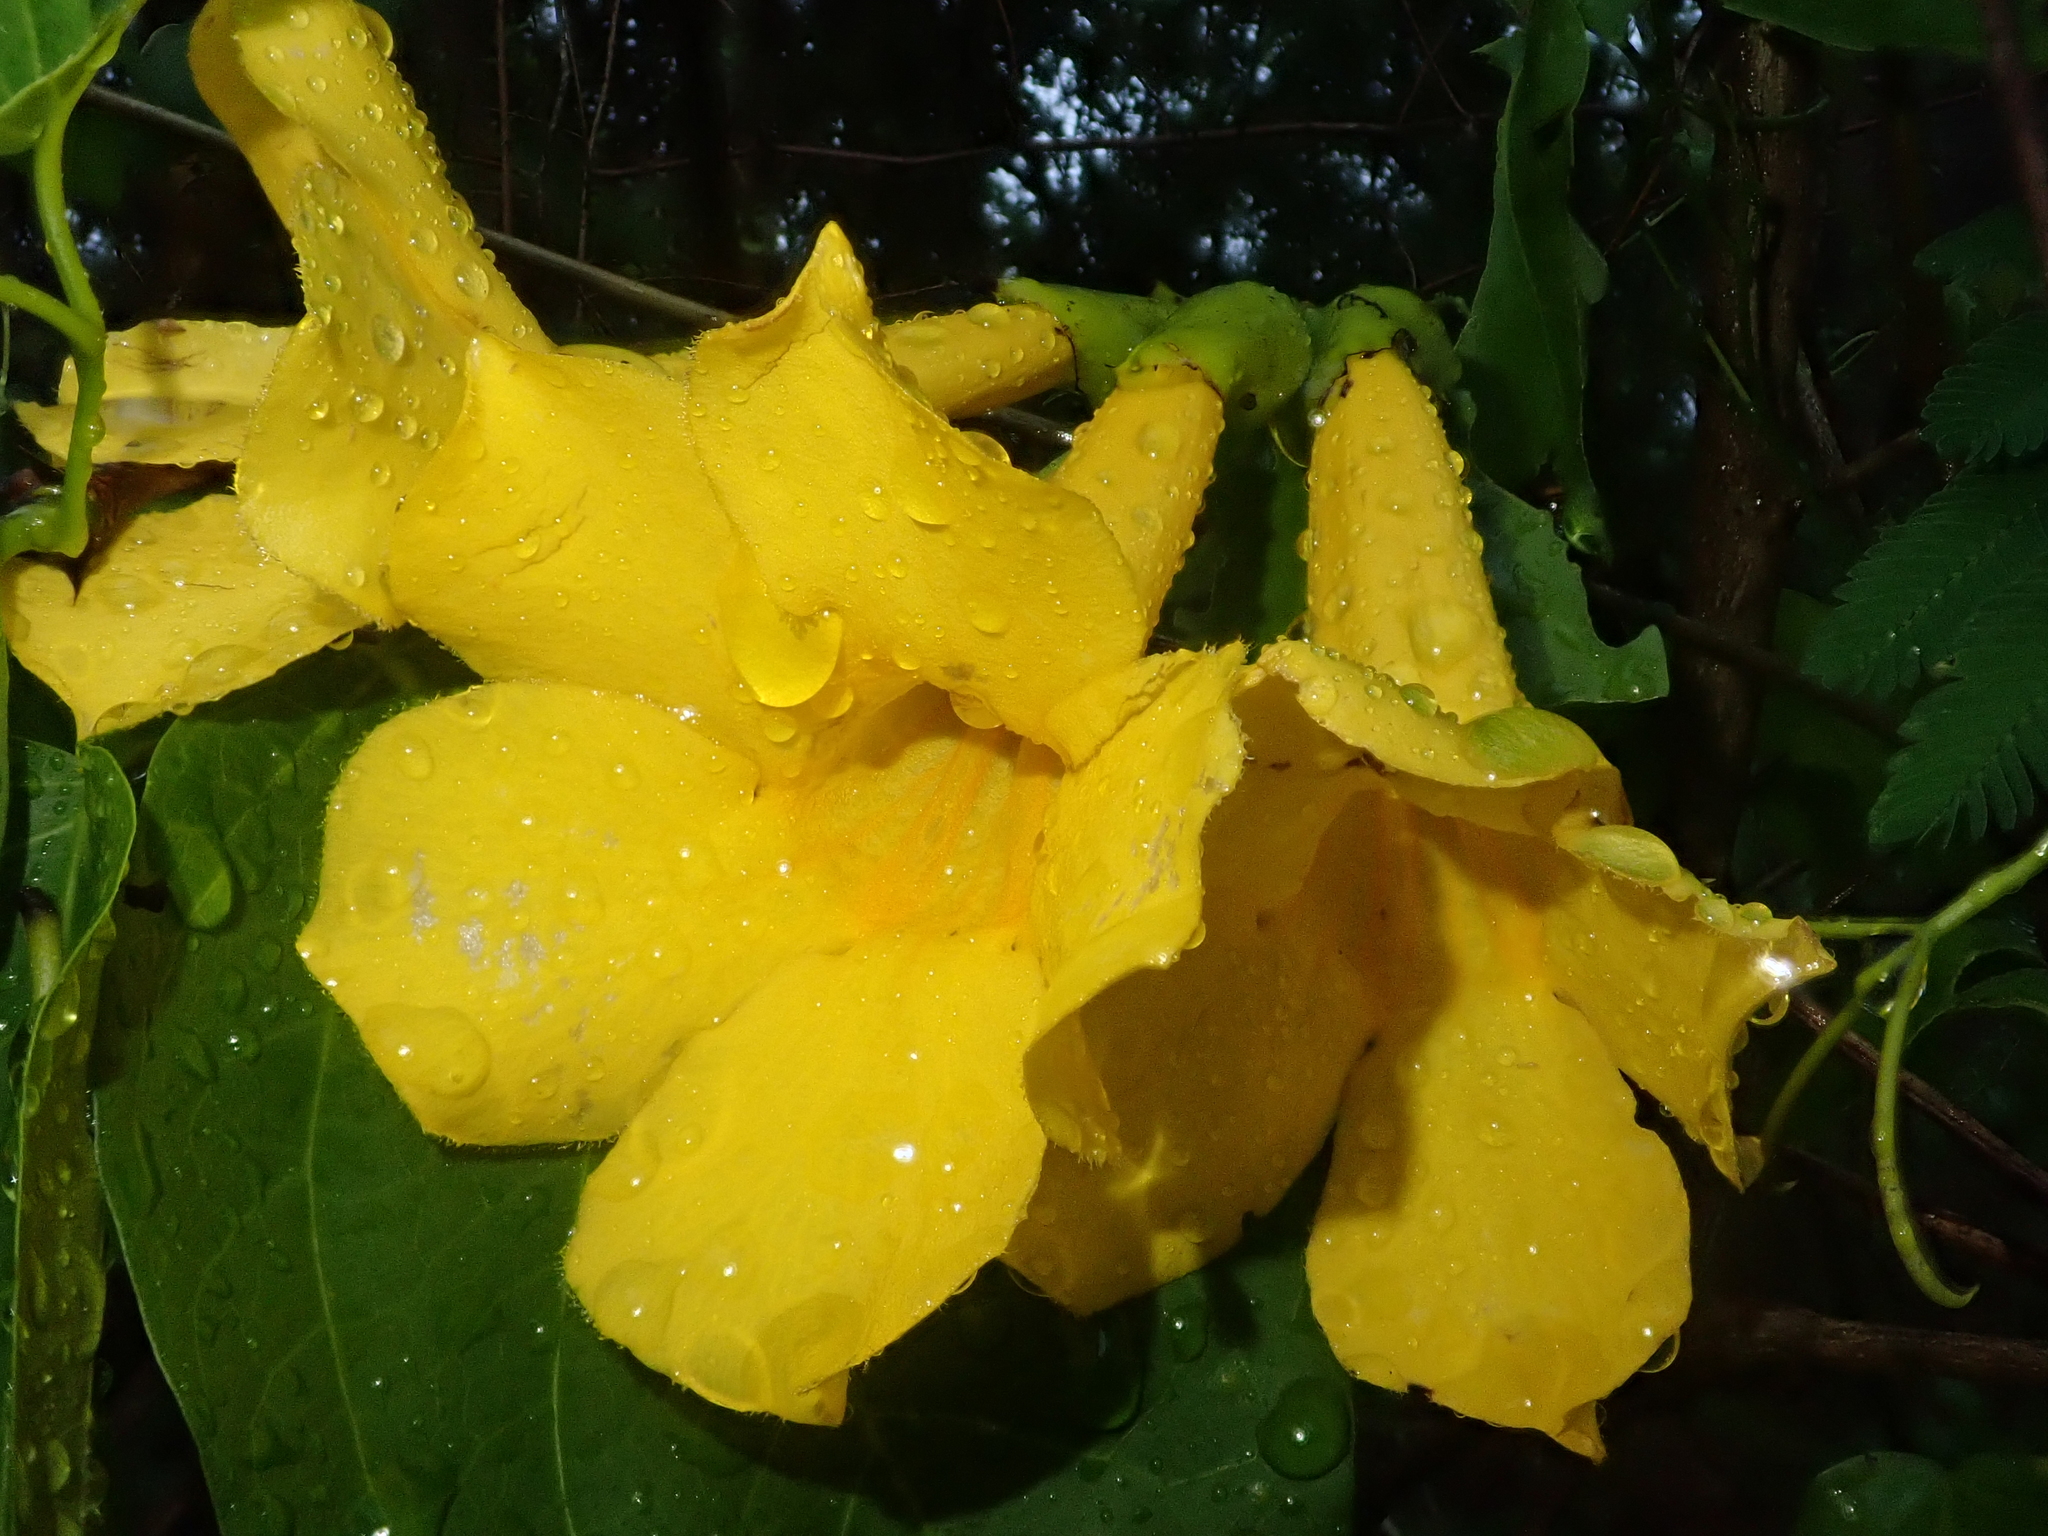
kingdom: Plantae
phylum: Tracheophyta
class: Magnoliopsida
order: Lamiales
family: Bignoniaceae
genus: Dolichandra
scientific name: Dolichandra quadrivalvis
